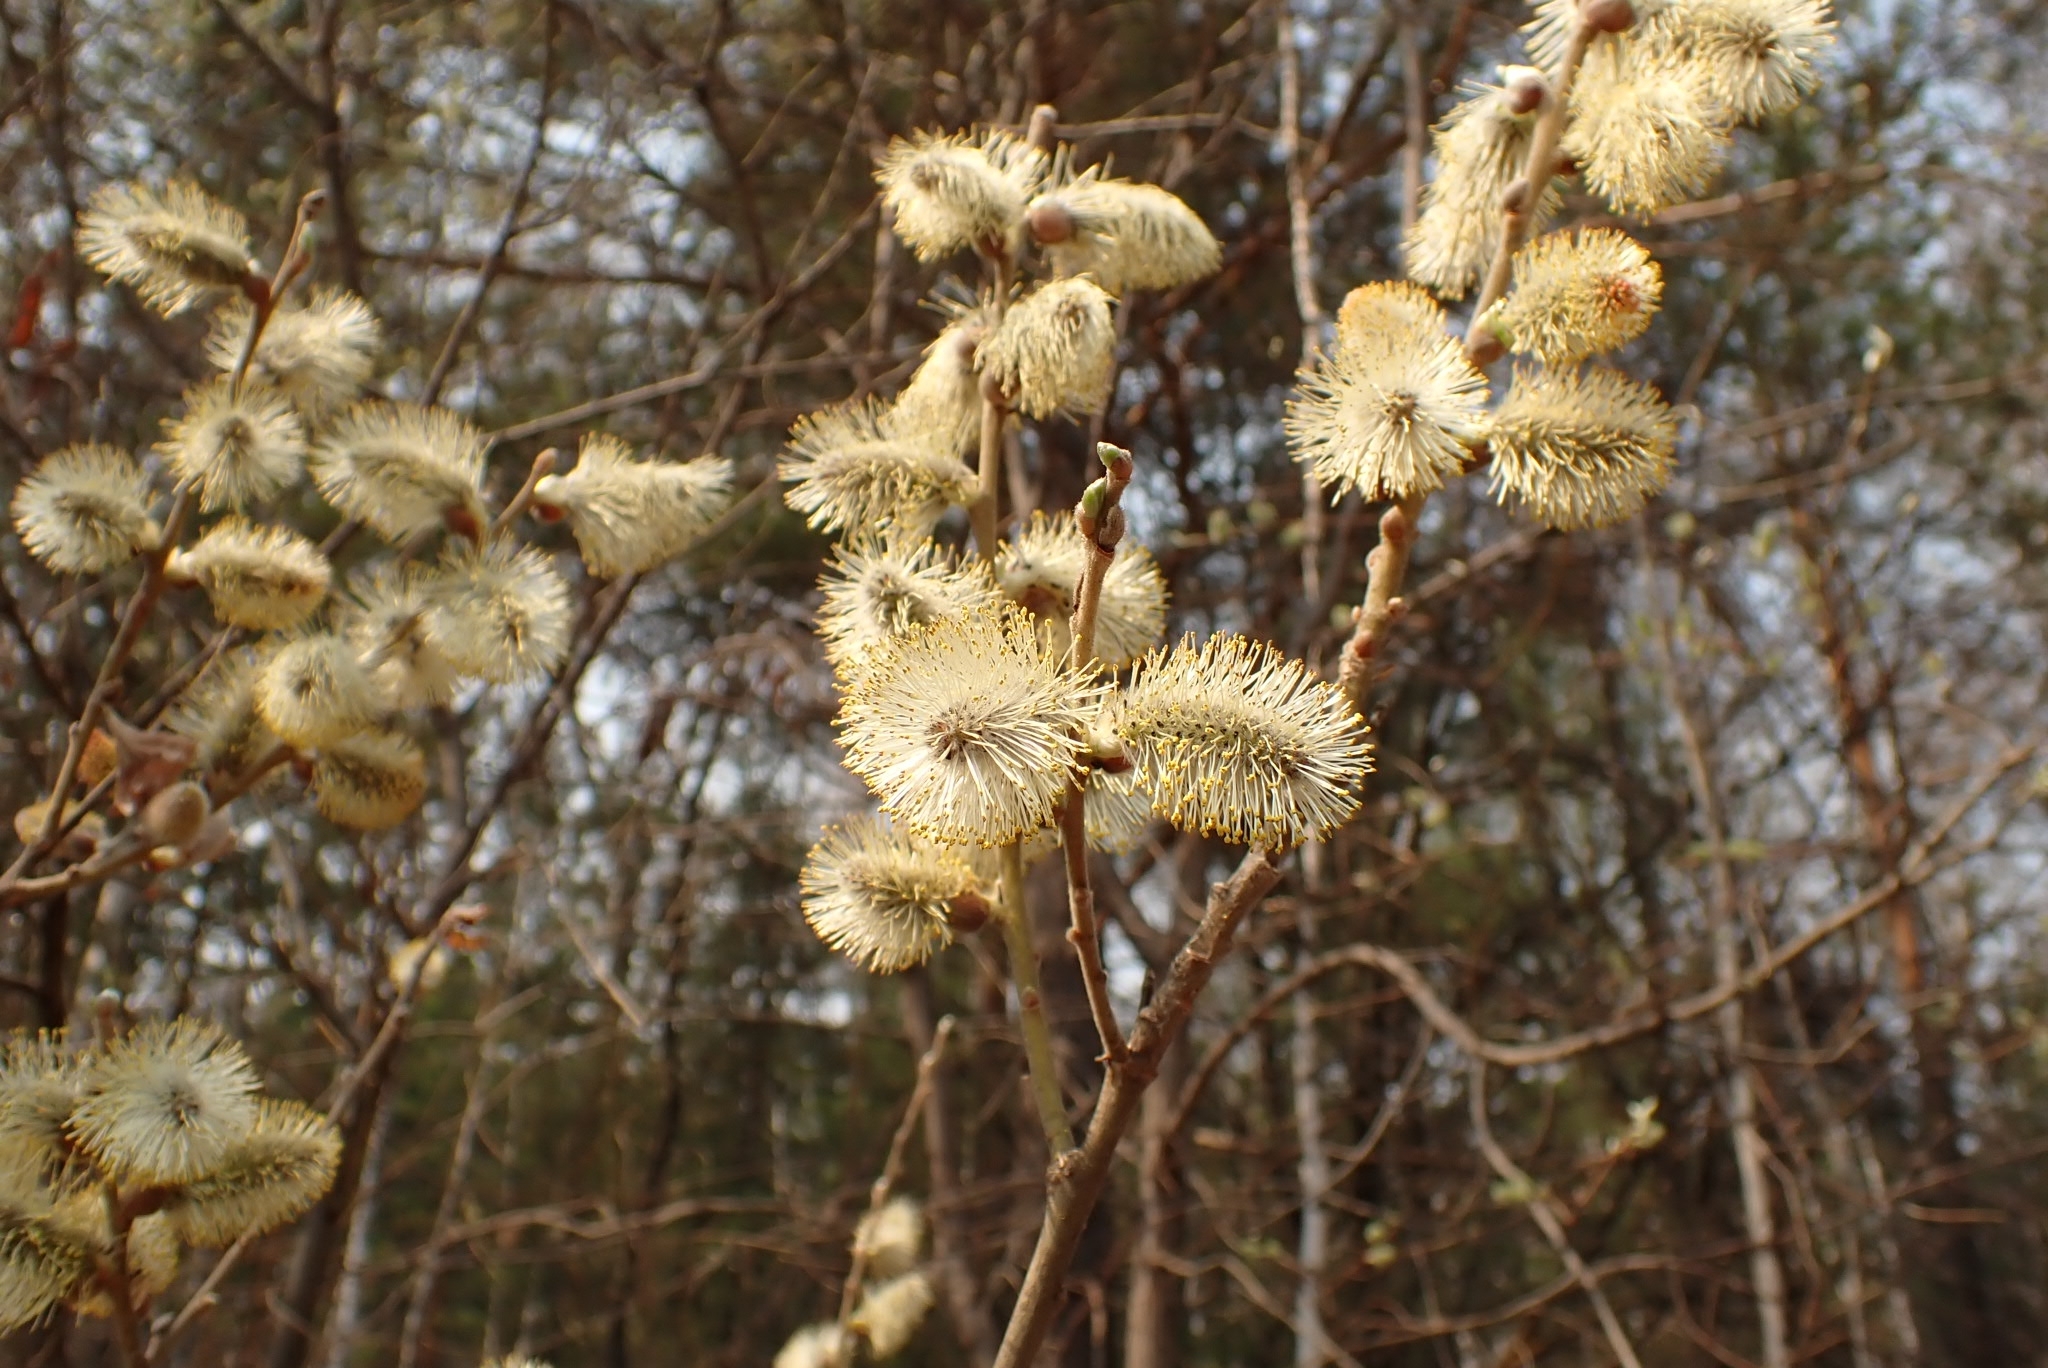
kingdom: Plantae
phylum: Tracheophyta
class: Magnoliopsida
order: Malpighiales
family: Salicaceae
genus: Salix
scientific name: Salix caprea
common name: Goat willow
